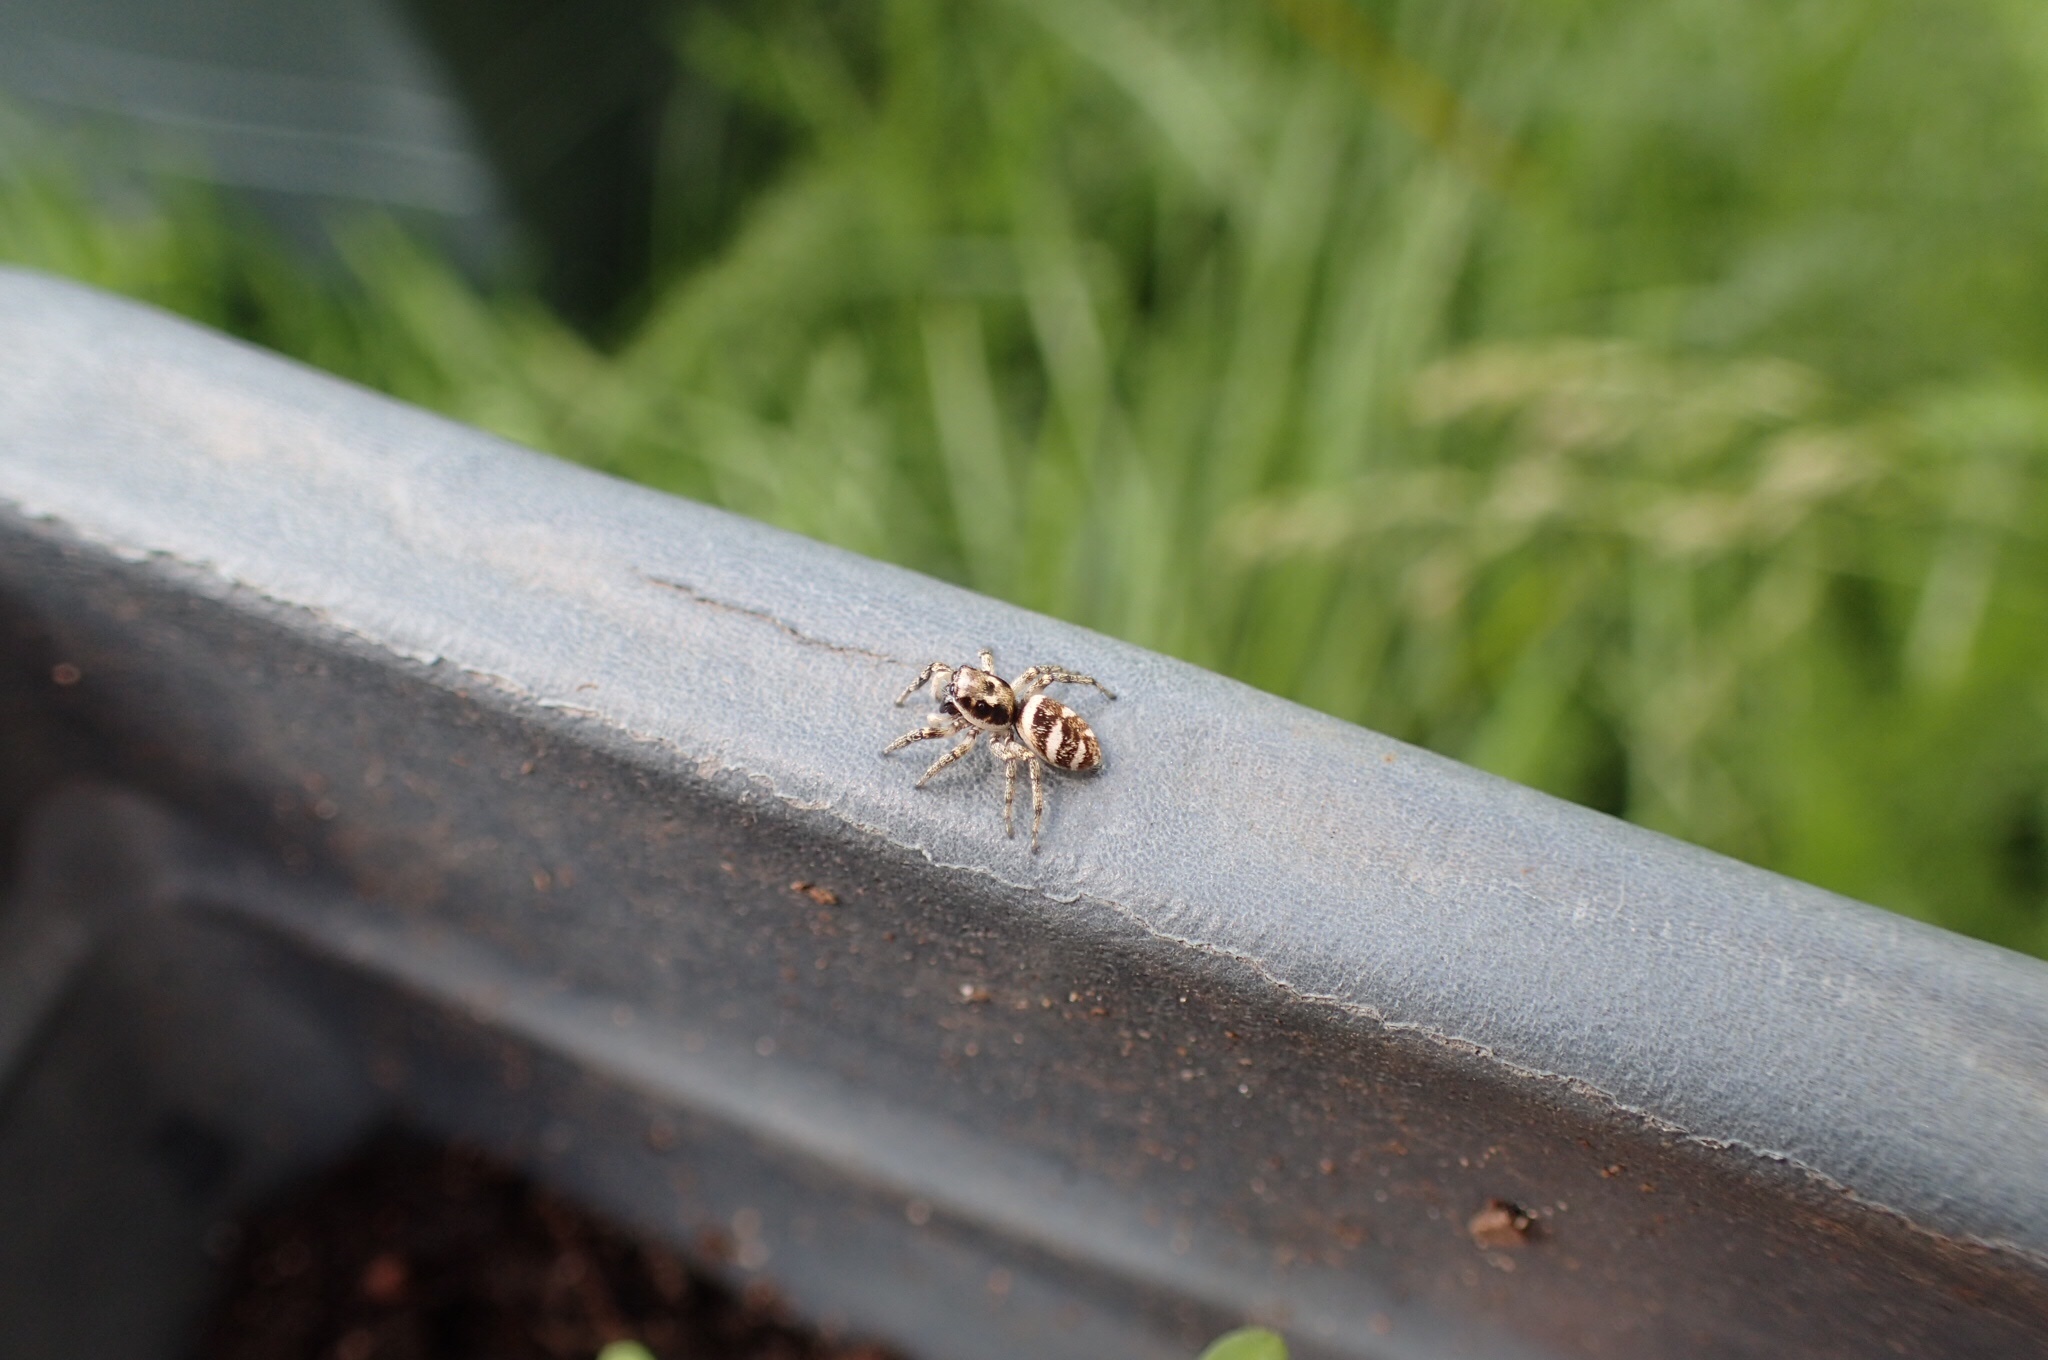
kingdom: Animalia
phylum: Arthropoda
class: Arachnida
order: Araneae
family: Salticidae
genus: Salticus
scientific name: Salticus scenicus
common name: Zebra jumper
